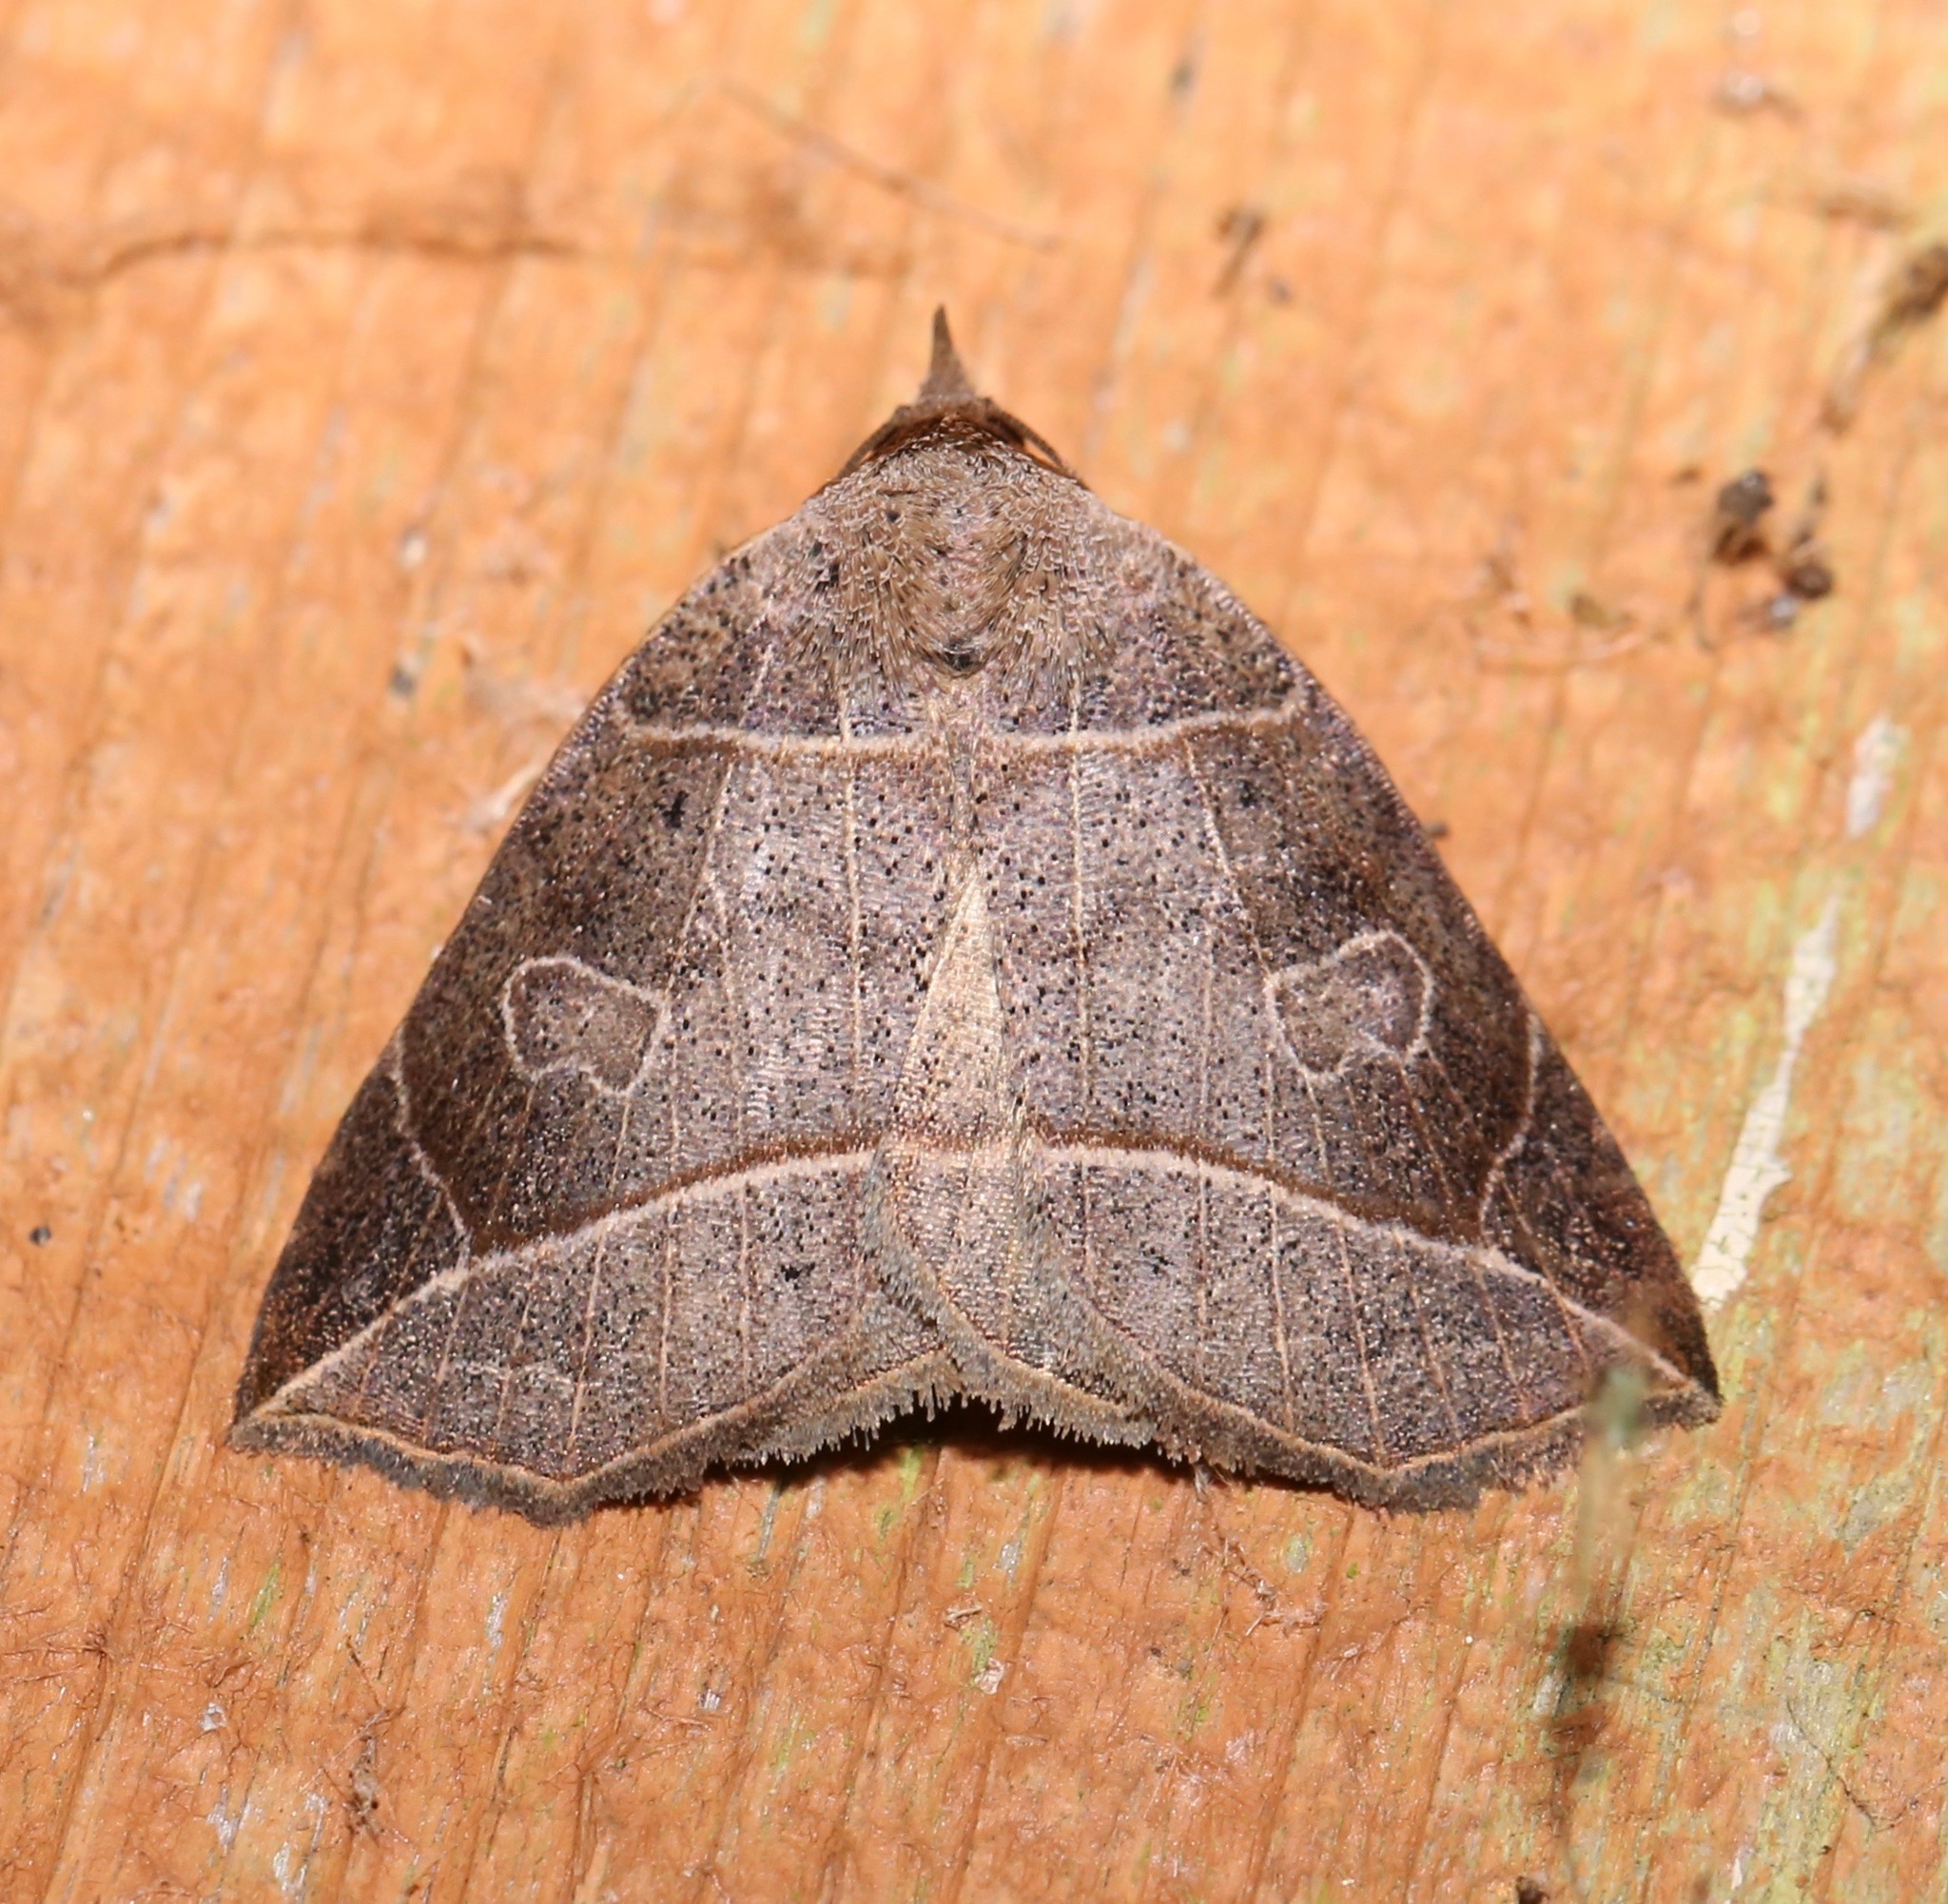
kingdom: Animalia
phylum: Arthropoda
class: Insecta
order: Lepidoptera
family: Erebidae
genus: Isogona
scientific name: Isogona tenuis
